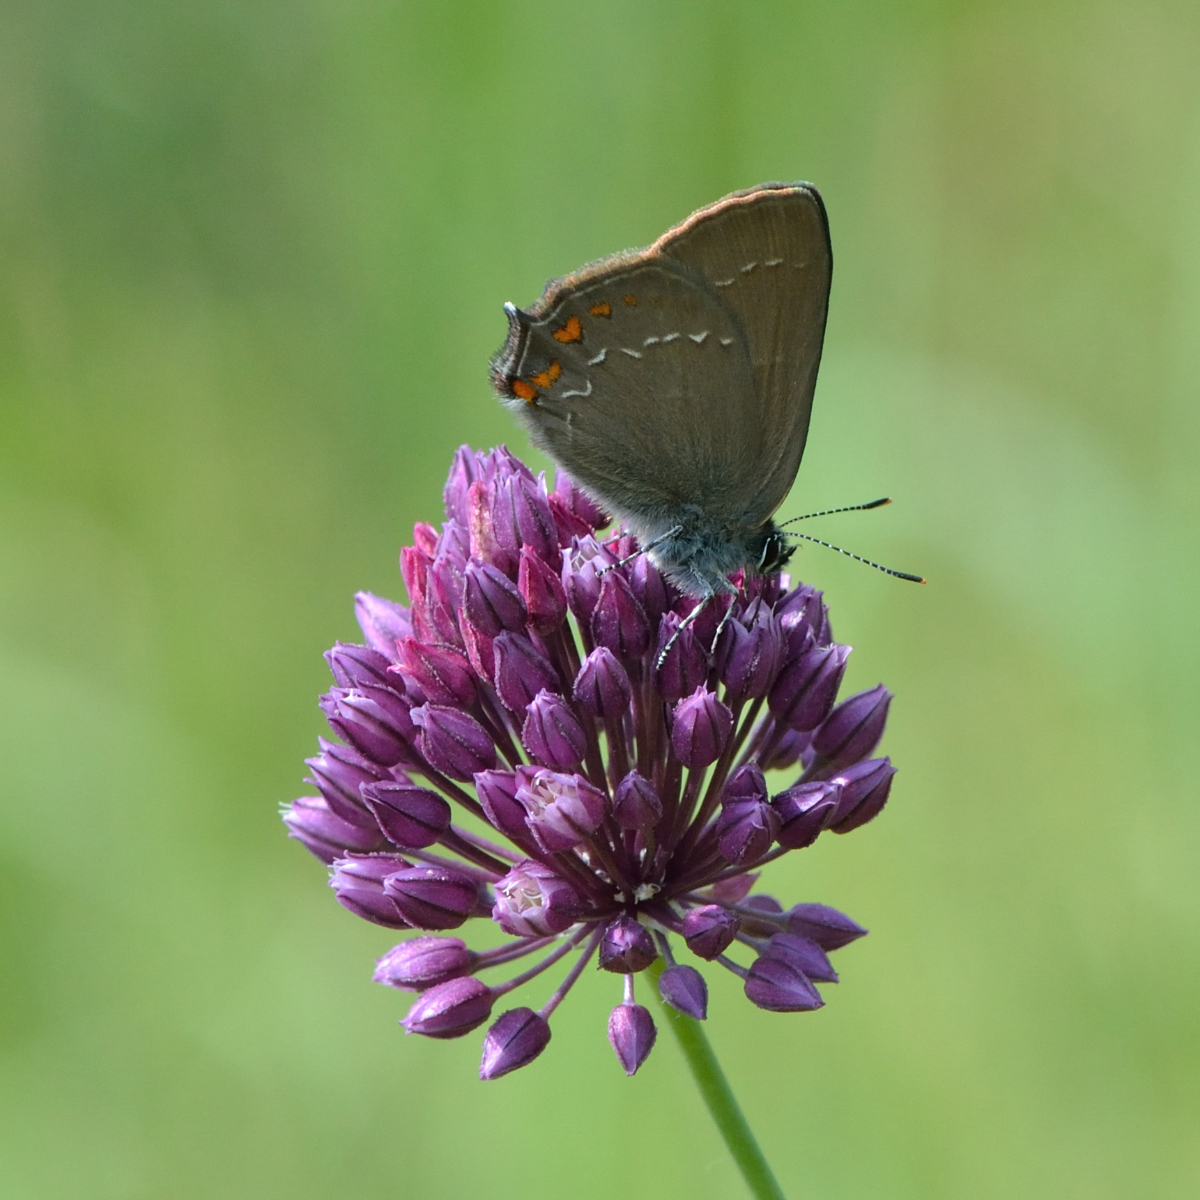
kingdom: Animalia
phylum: Arthropoda
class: Insecta
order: Lepidoptera
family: Lycaenidae
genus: Nordmannia
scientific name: Nordmannia ilicis
